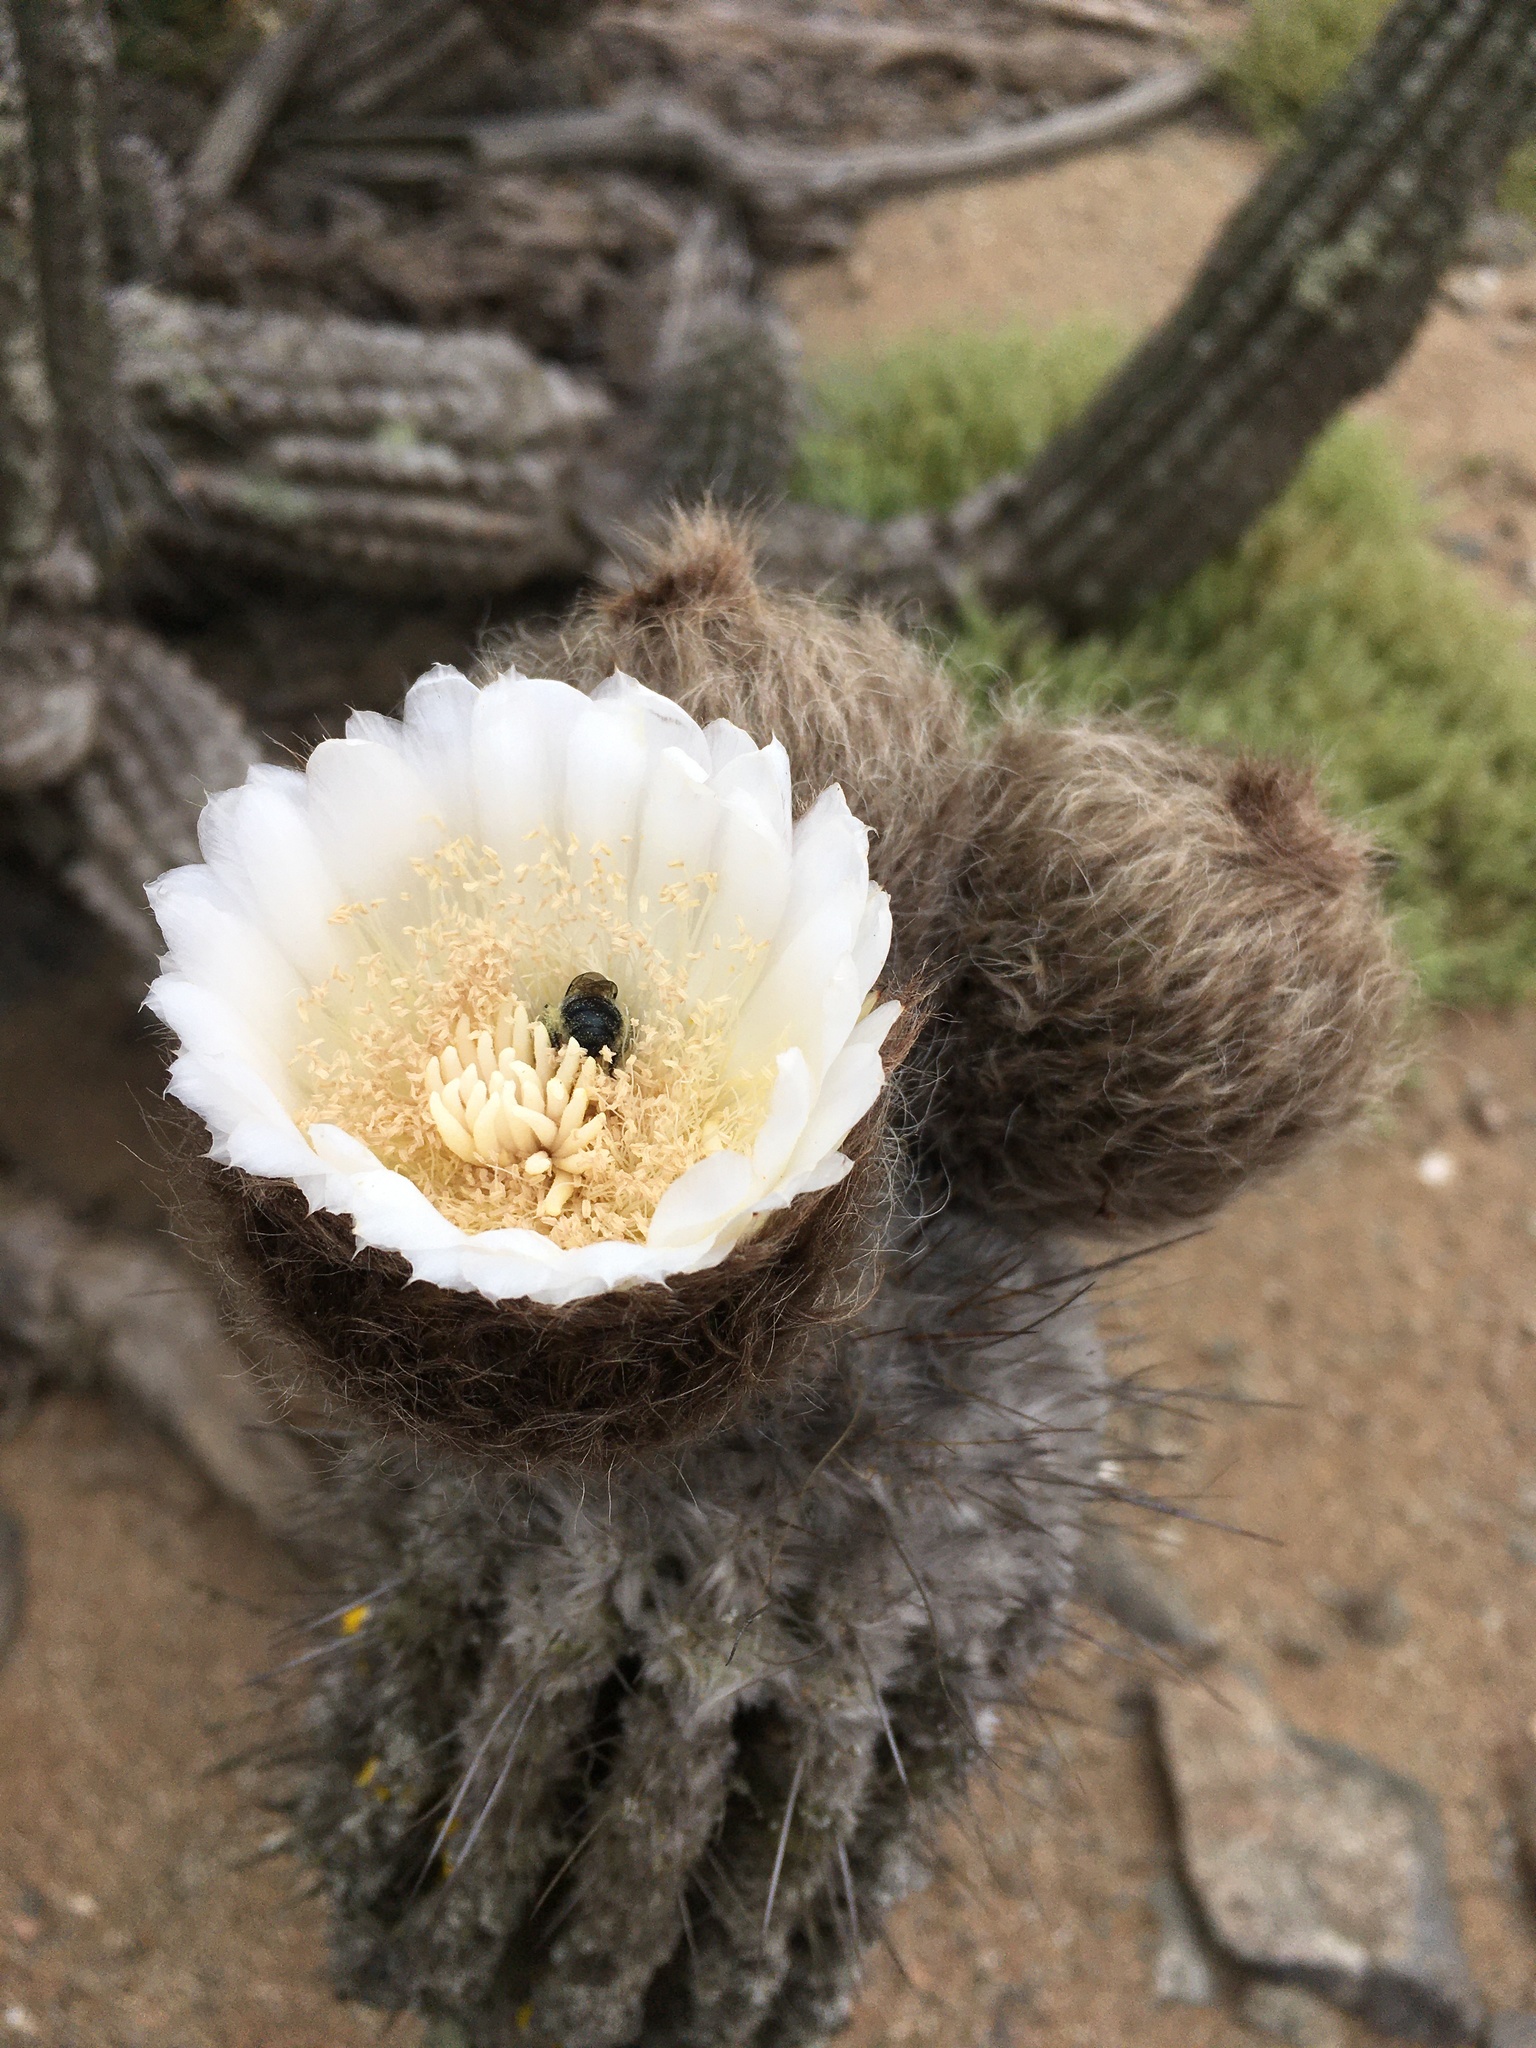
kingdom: Plantae
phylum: Tracheophyta
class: Magnoliopsida
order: Caryophyllales
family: Cactaceae
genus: Eulychnia
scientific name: Eulychnia iquiquensis
